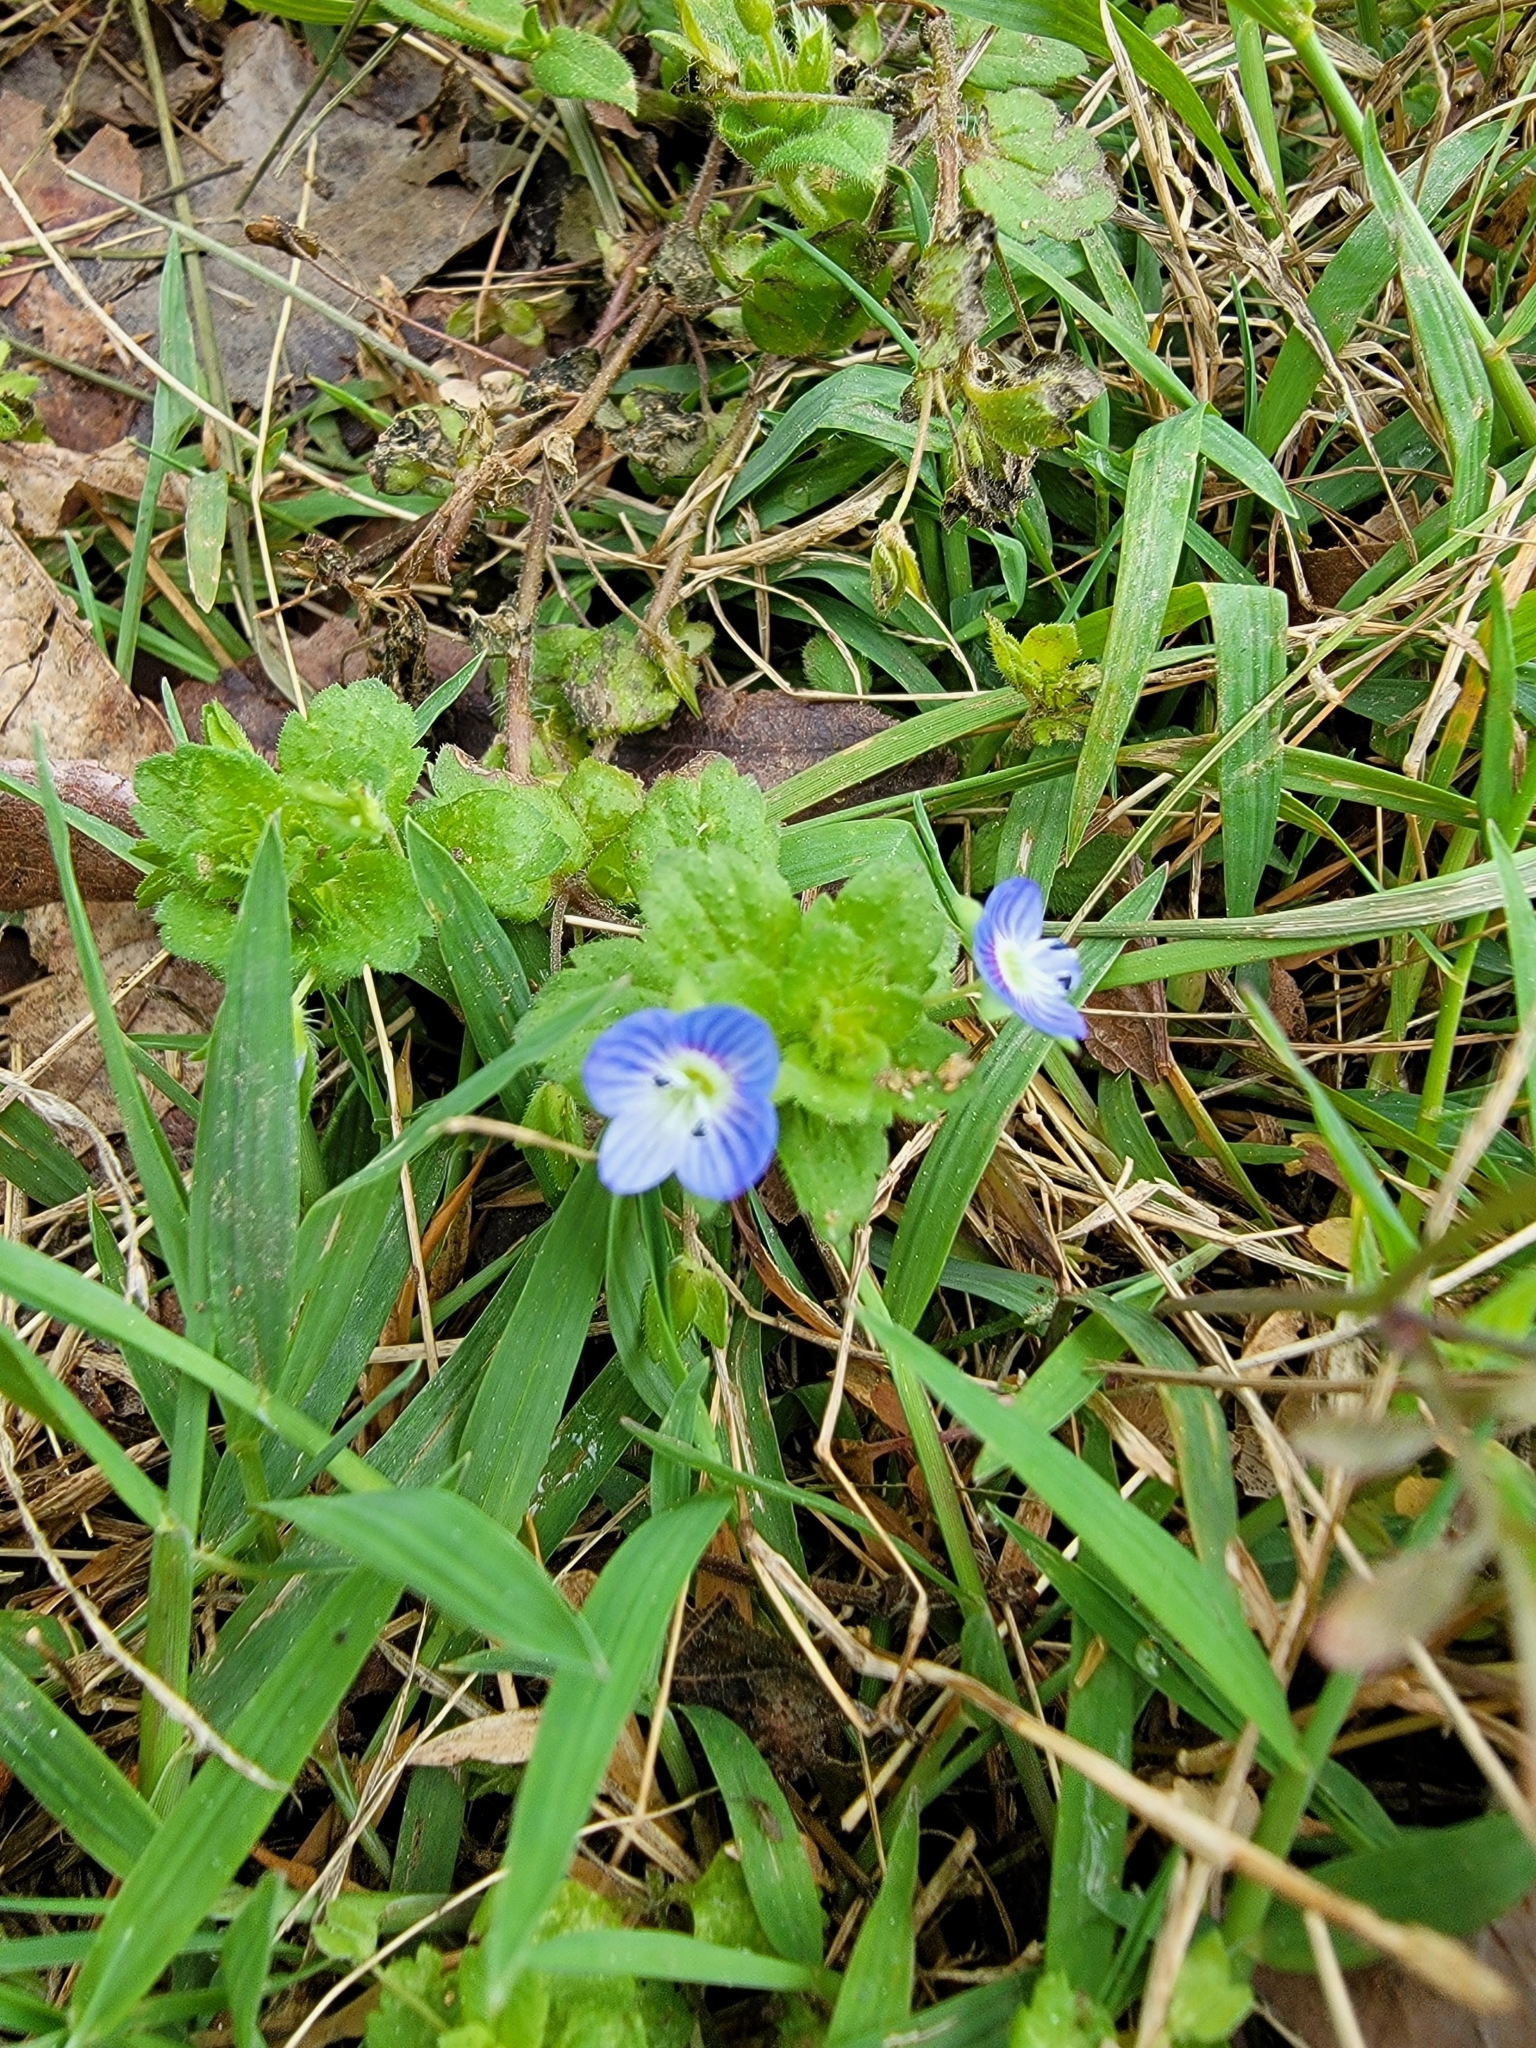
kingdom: Plantae
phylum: Tracheophyta
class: Magnoliopsida
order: Lamiales
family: Plantaginaceae
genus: Veronica
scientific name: Veronica persica
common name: Common field-speedwell
